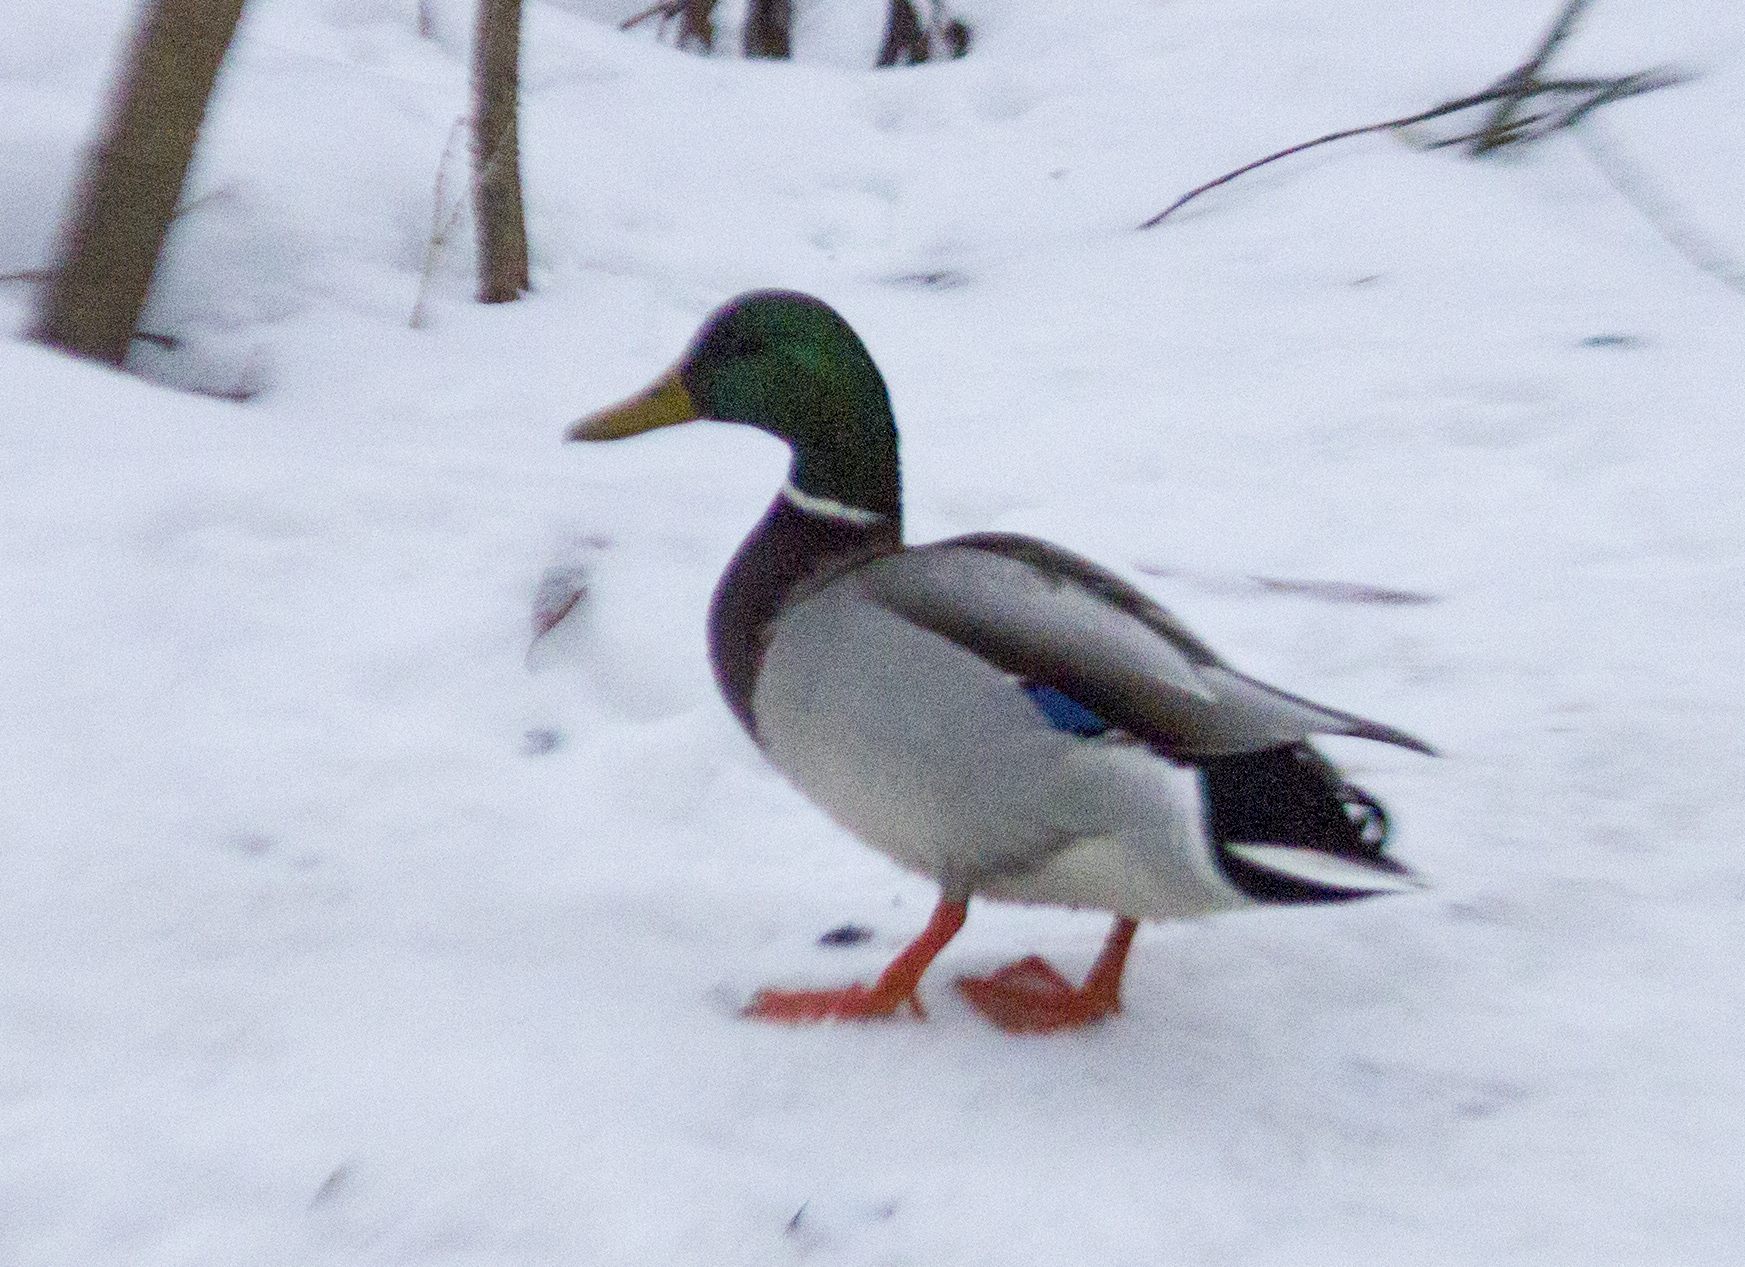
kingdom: Animalia
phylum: Chordata
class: Aves
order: Anseriformes
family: Anatidae
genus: Anas
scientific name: Anas platyrhynchos
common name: Mallard
